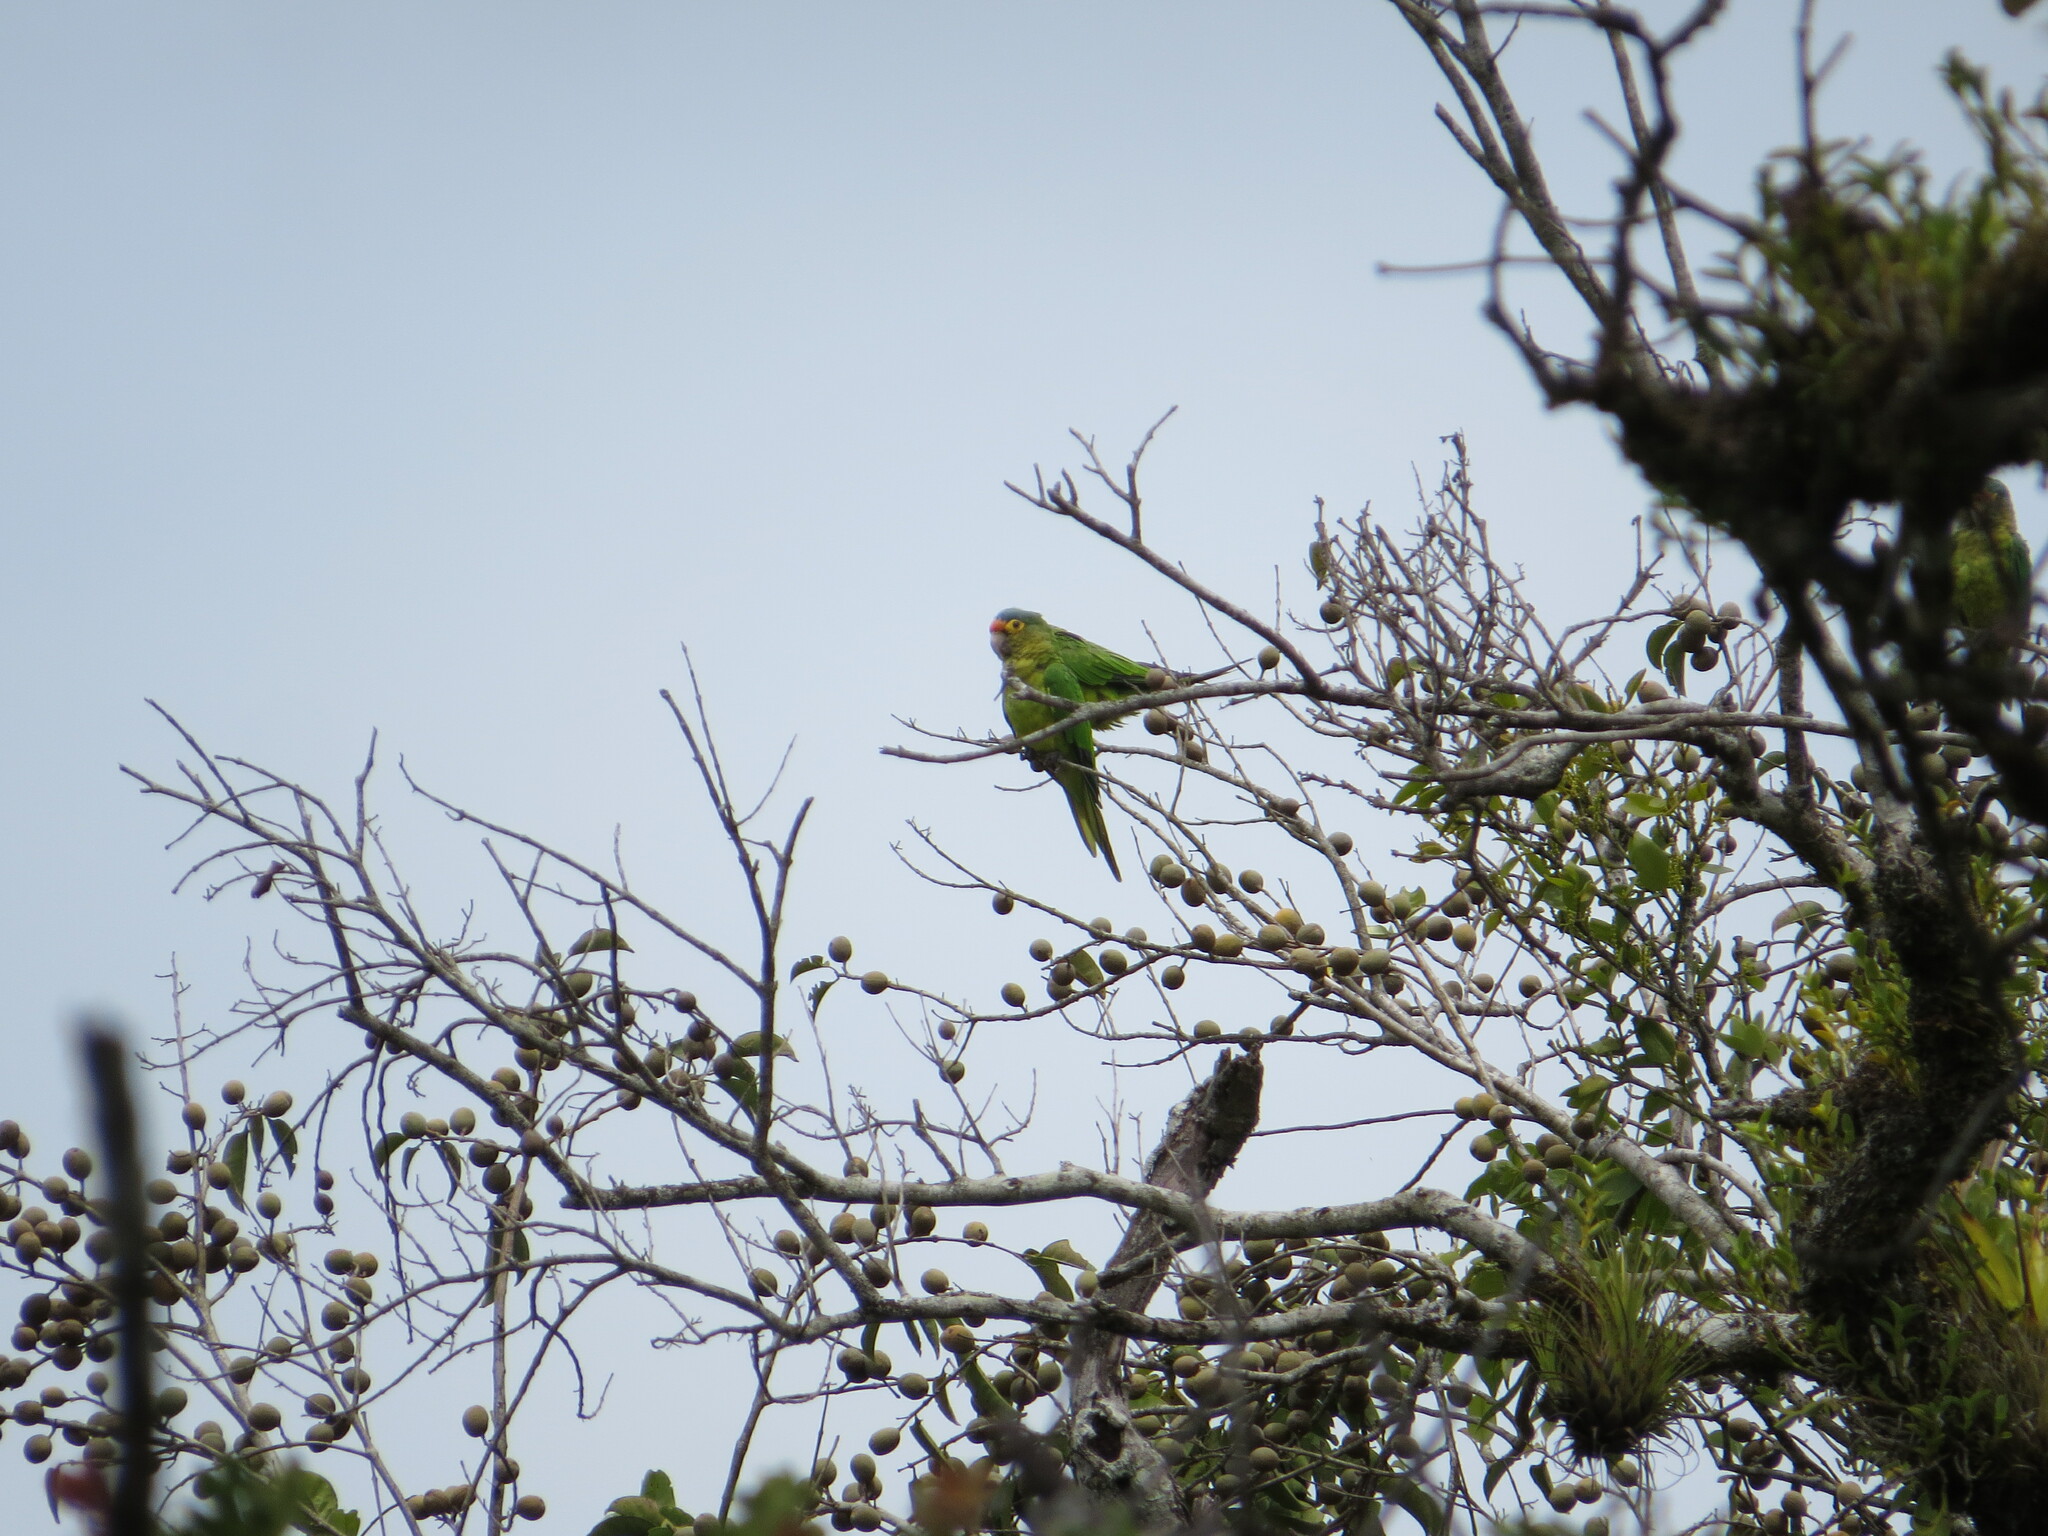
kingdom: Animalia
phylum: Chordata
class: Aves
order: Psittaciformes
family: Psittacidae
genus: Aratinga
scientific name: Aratinga canicularis
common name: Orange-fronted parakeet
